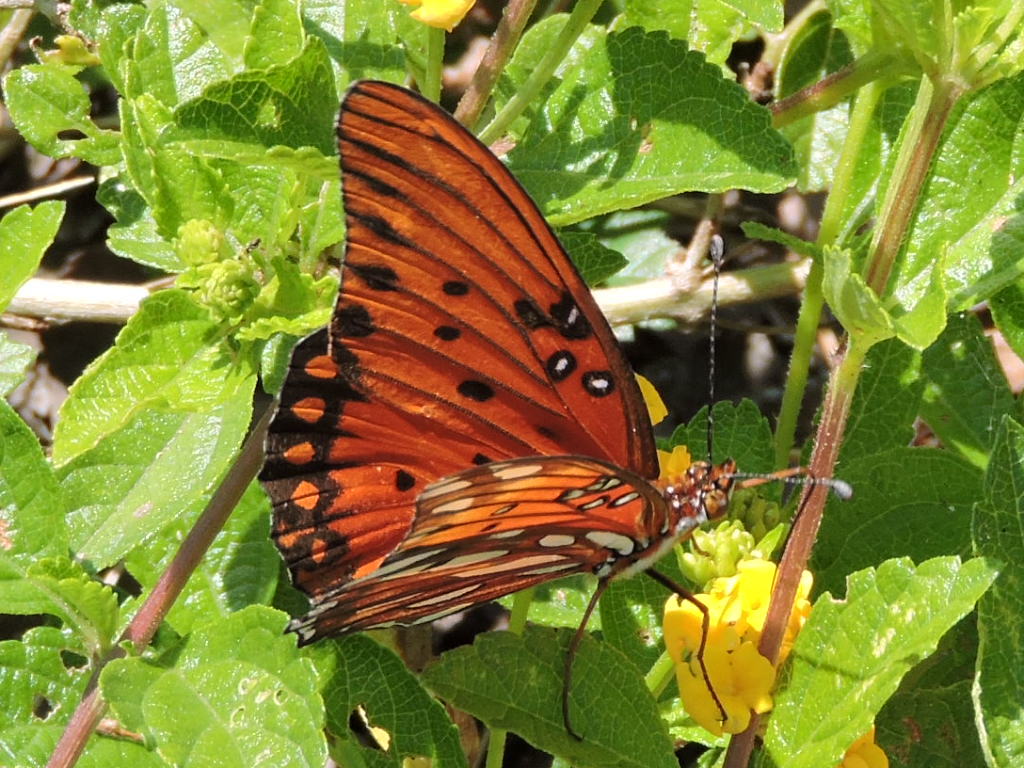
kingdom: Animalia
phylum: Arthropoda
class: Insecta
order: Lepidoptera
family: Nymphalidae
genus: Dione
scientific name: Dione vanillae
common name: Gulf fritillary
